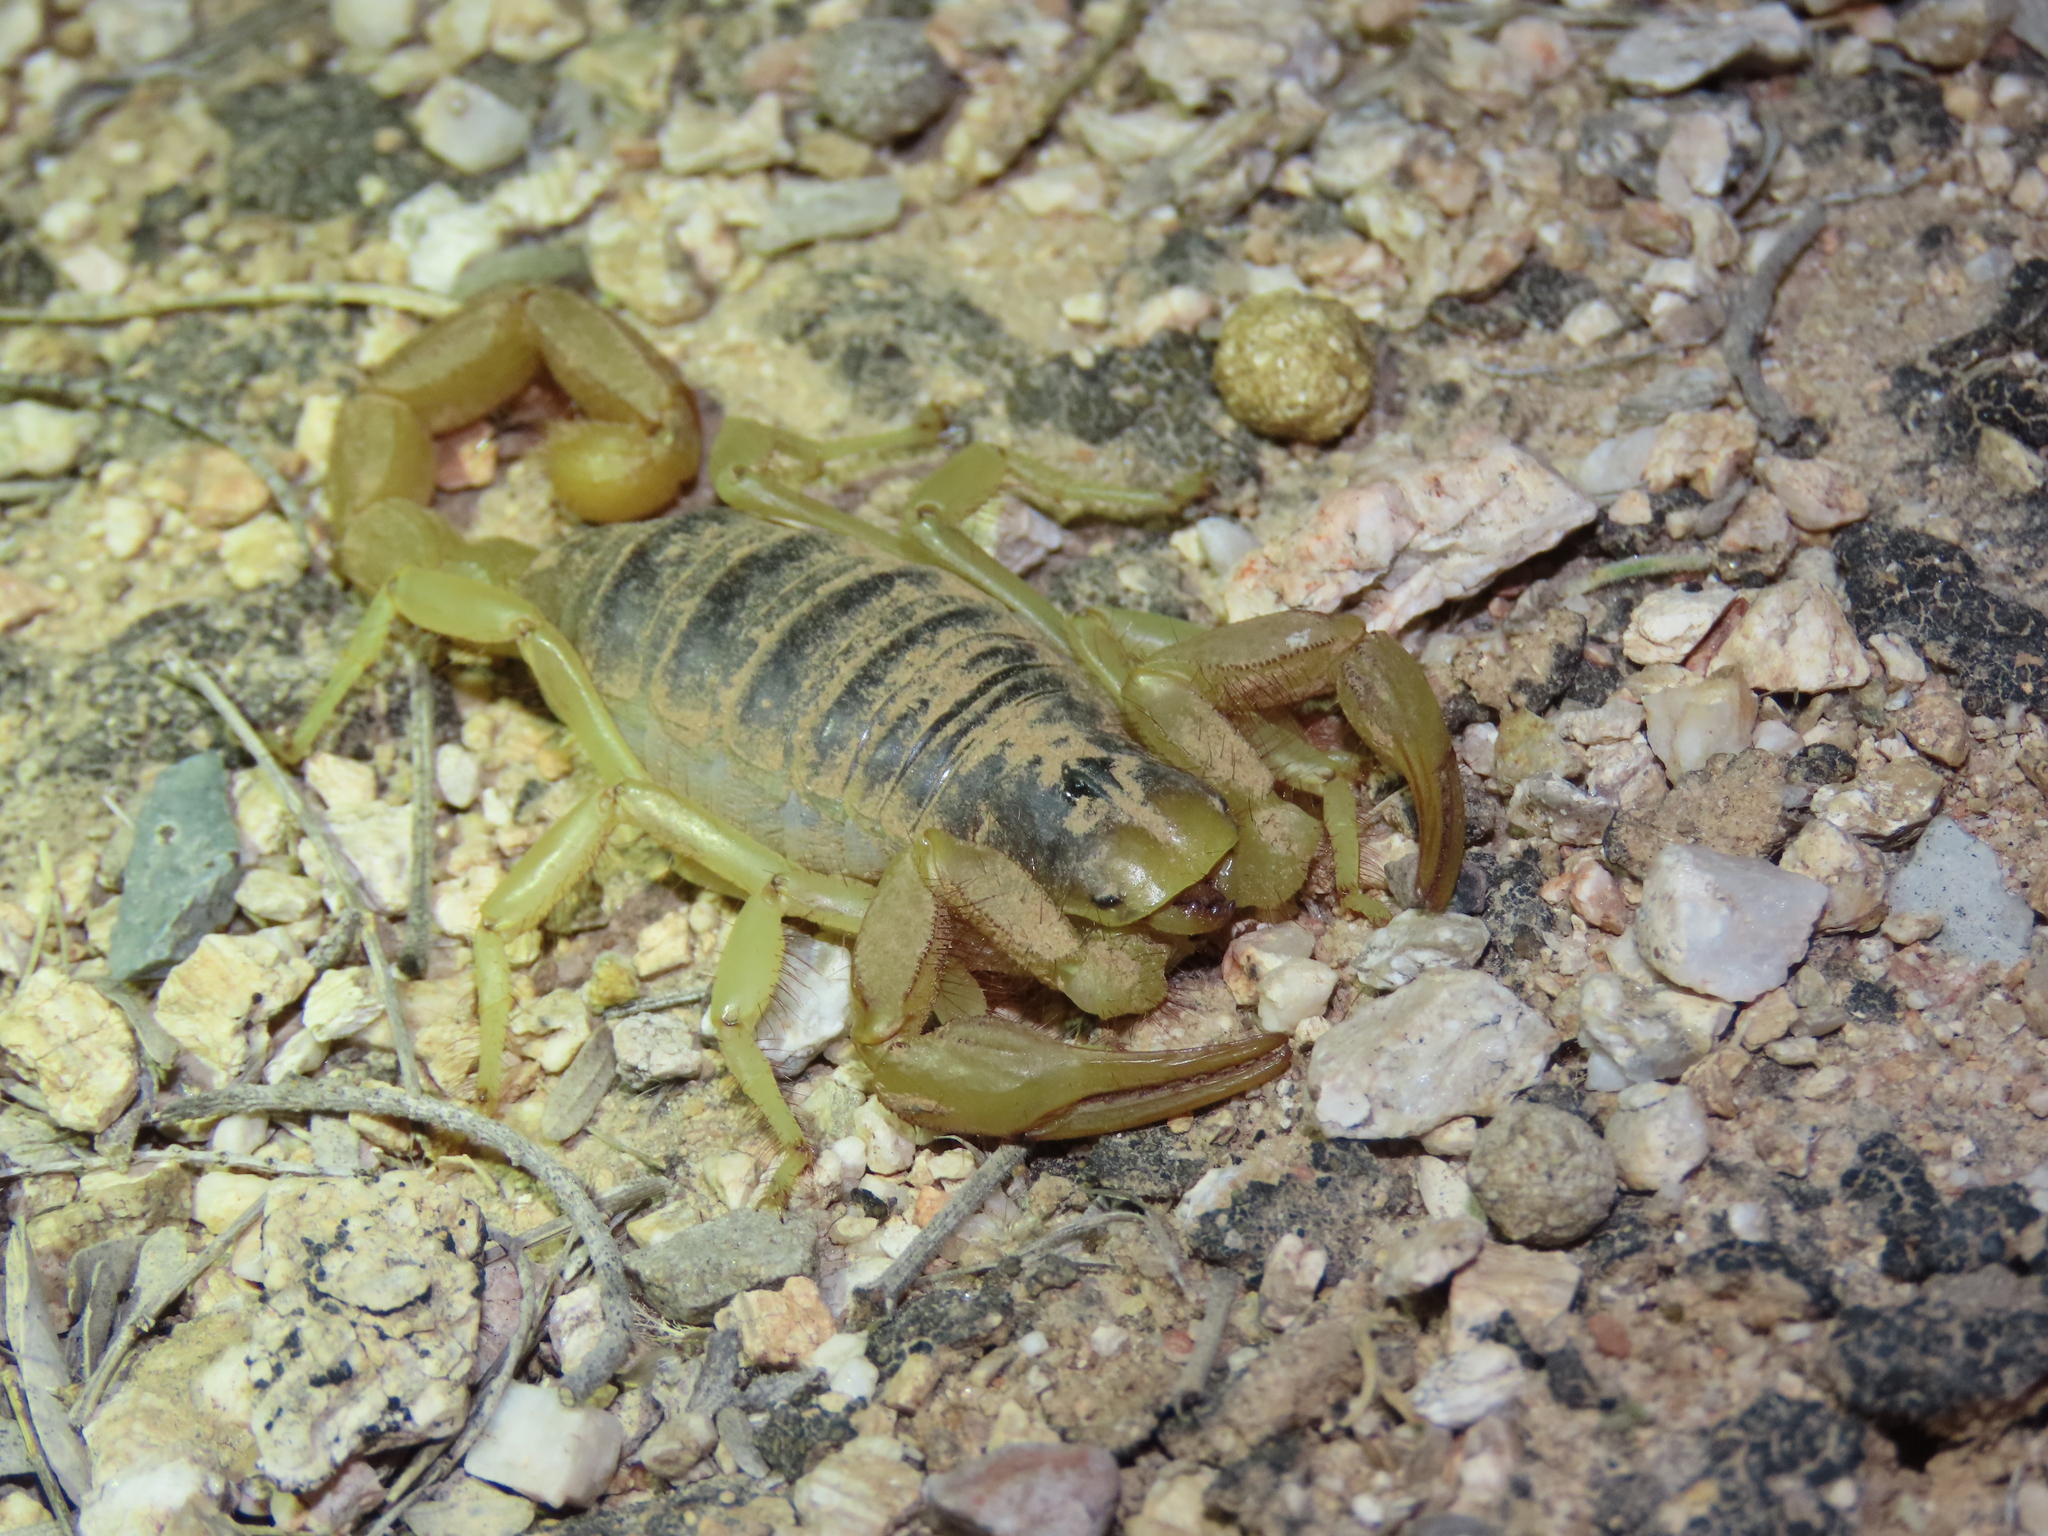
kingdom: Animalia
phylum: Arthropoda
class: Arachnida
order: Scorpiones
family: Hadruridae
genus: Hadrurus
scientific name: Hadrurus arizonensis
